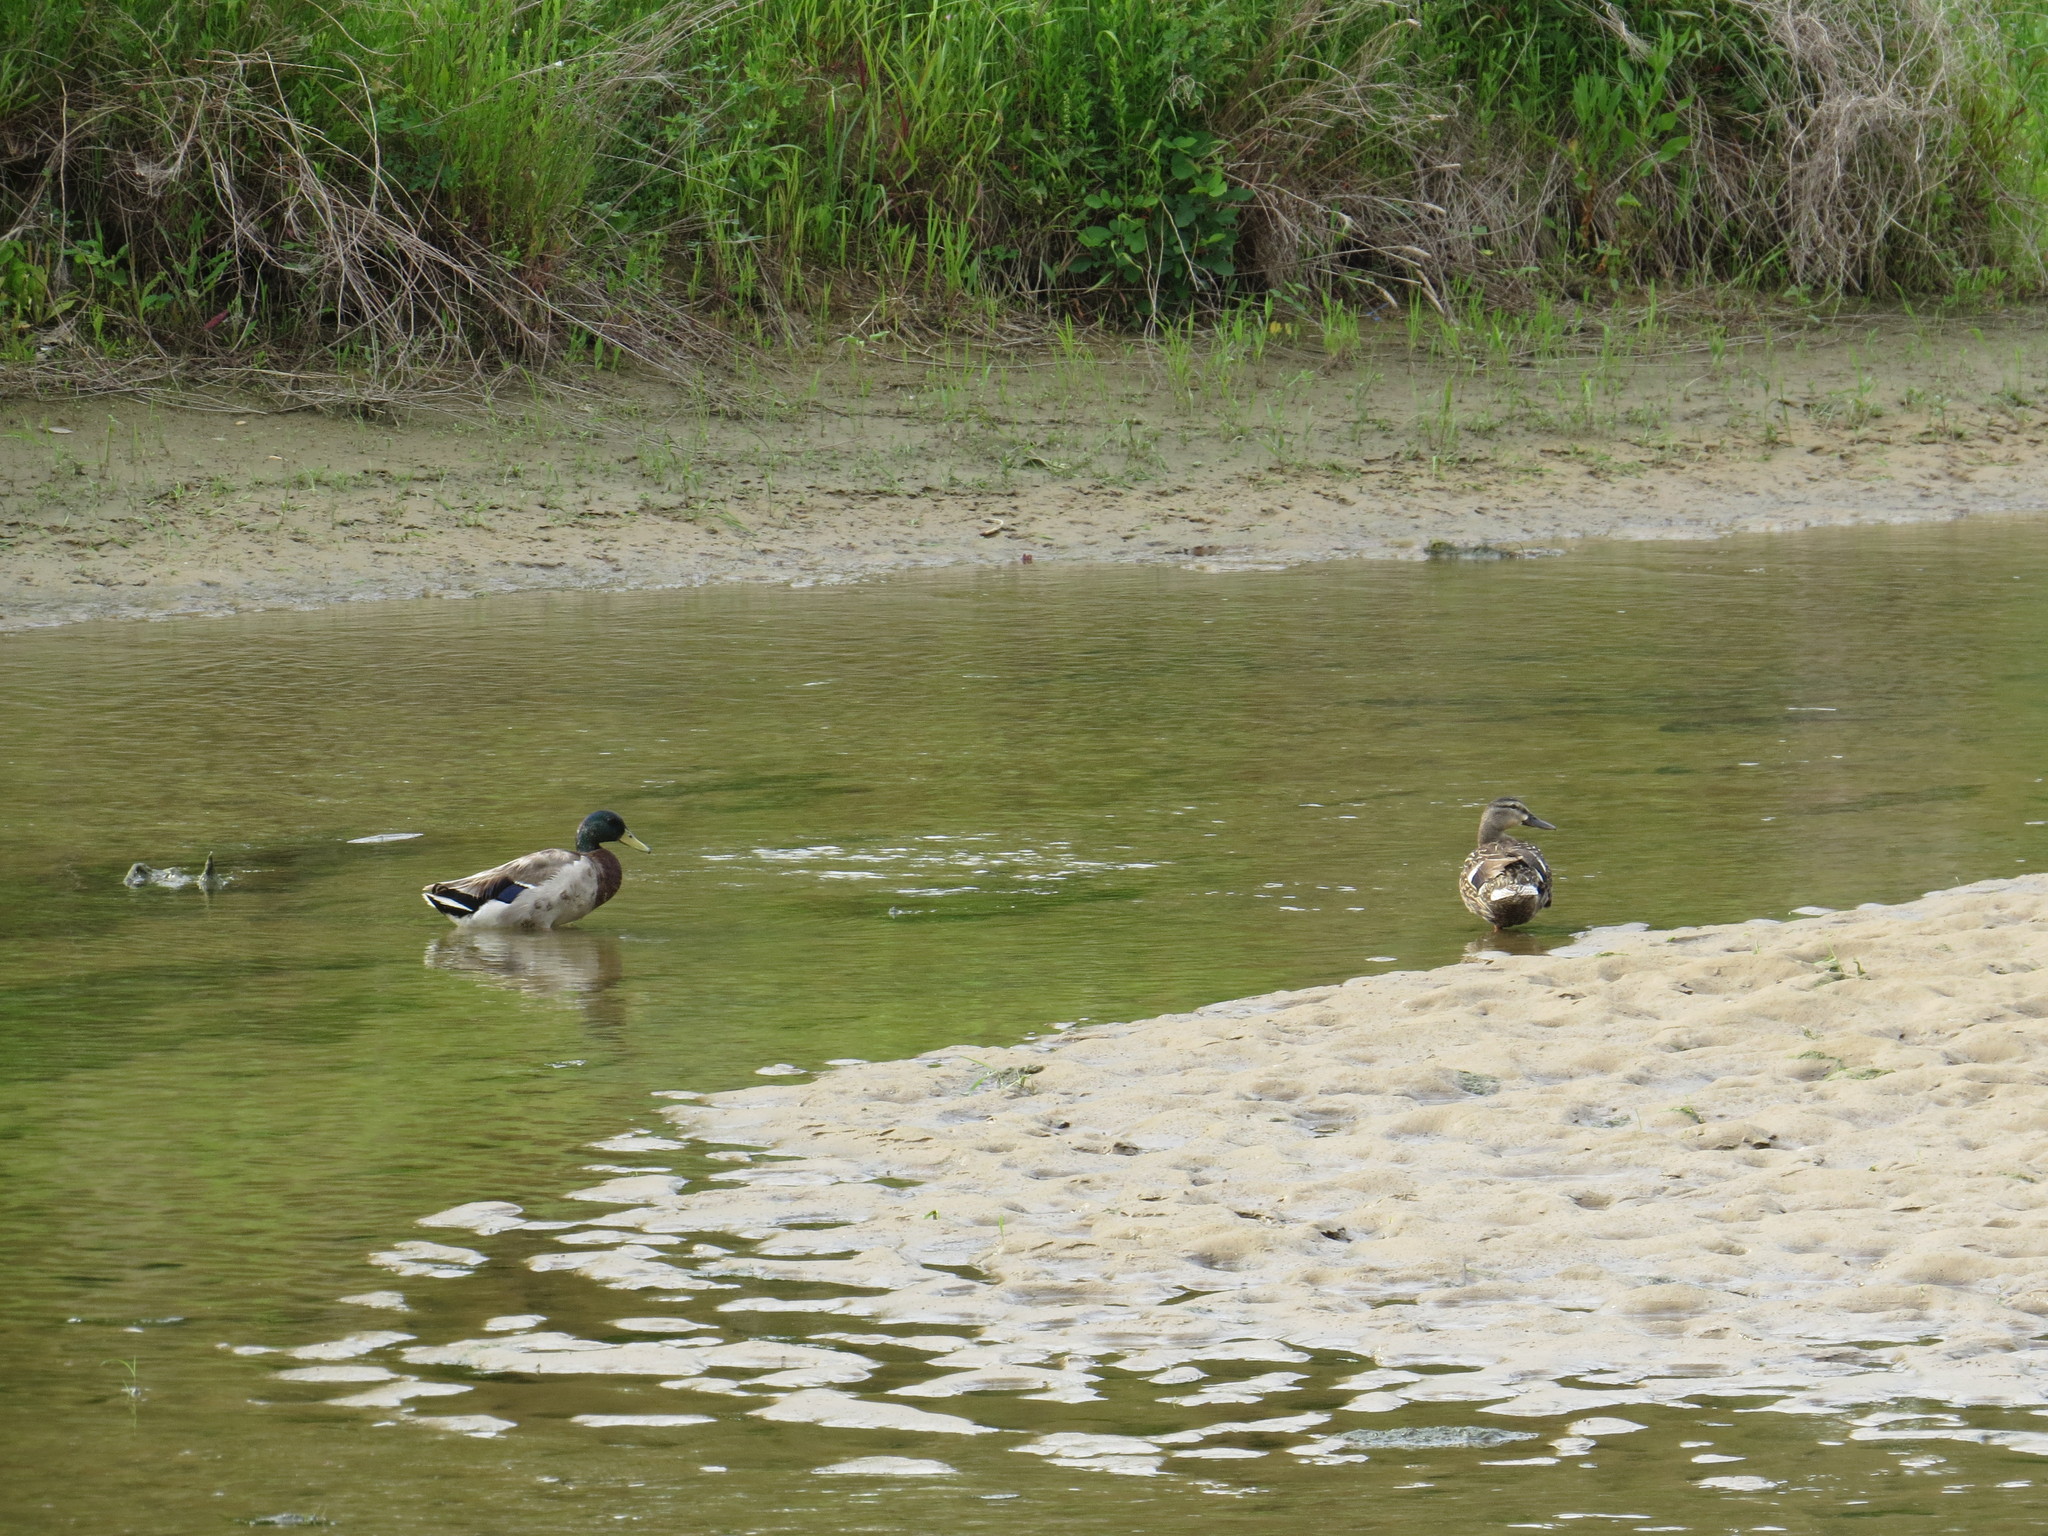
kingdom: Animalia
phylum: Chordata
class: Aves
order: Anseriformes
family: Anatidae
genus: Anas
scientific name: Anas platyrhynchos
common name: Mallard
